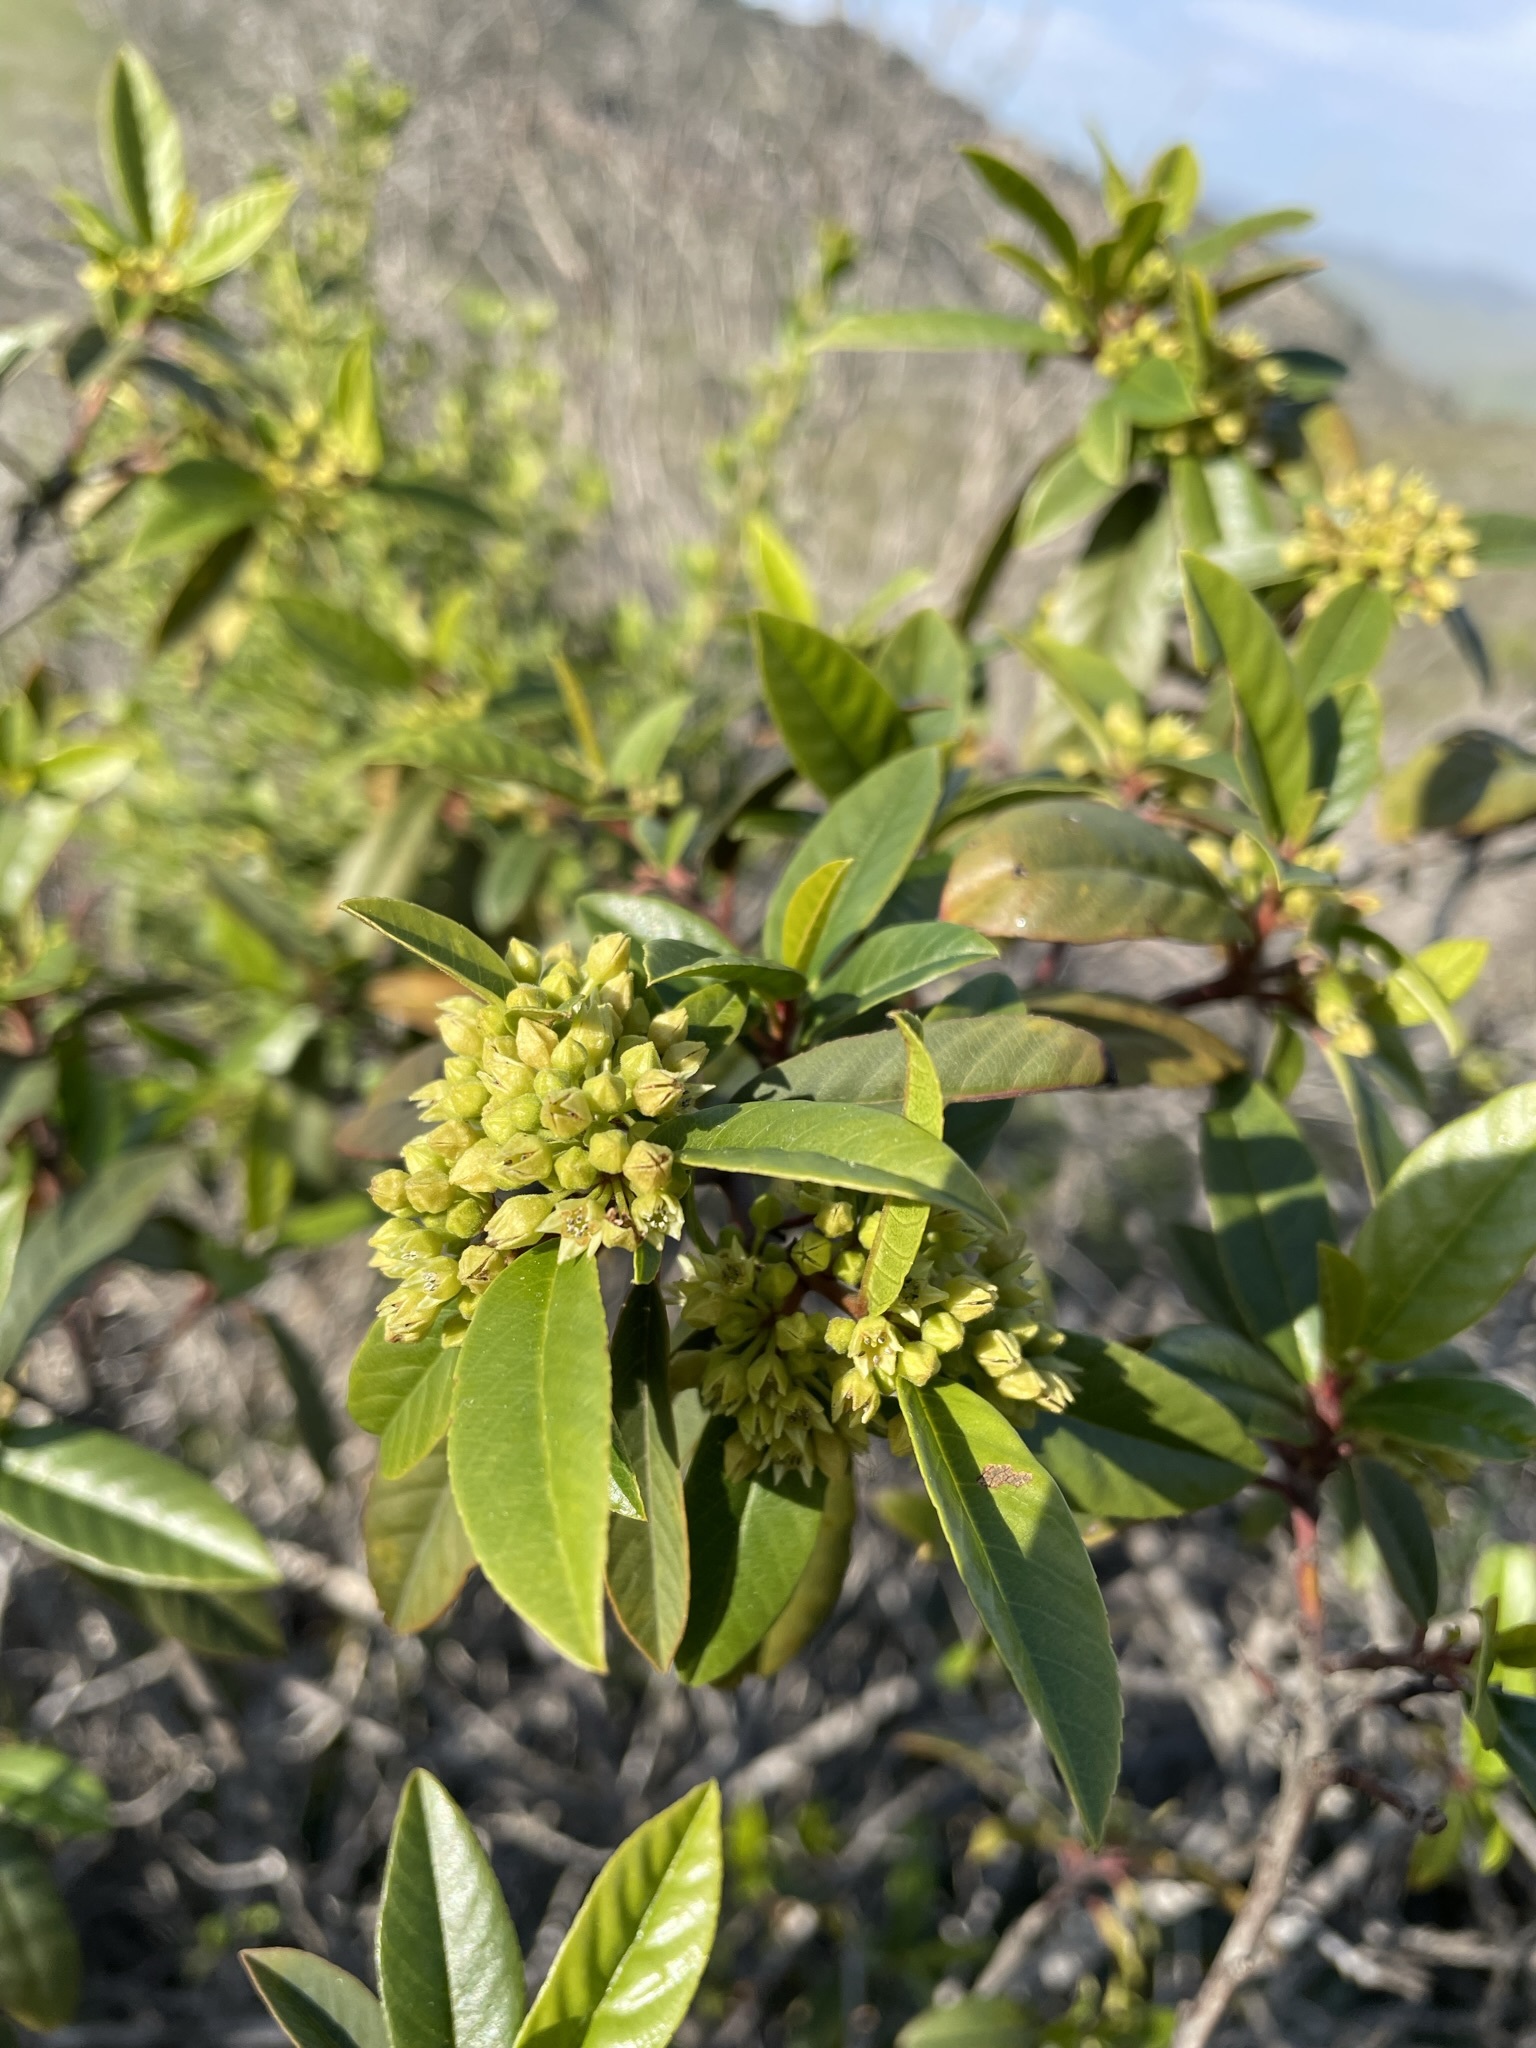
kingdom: Plantae
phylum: Tracheophyta
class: Magnoliopsida
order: Rosales
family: Rhamnaceae
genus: Frangula
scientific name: Frangula californica
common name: California buckthorn
